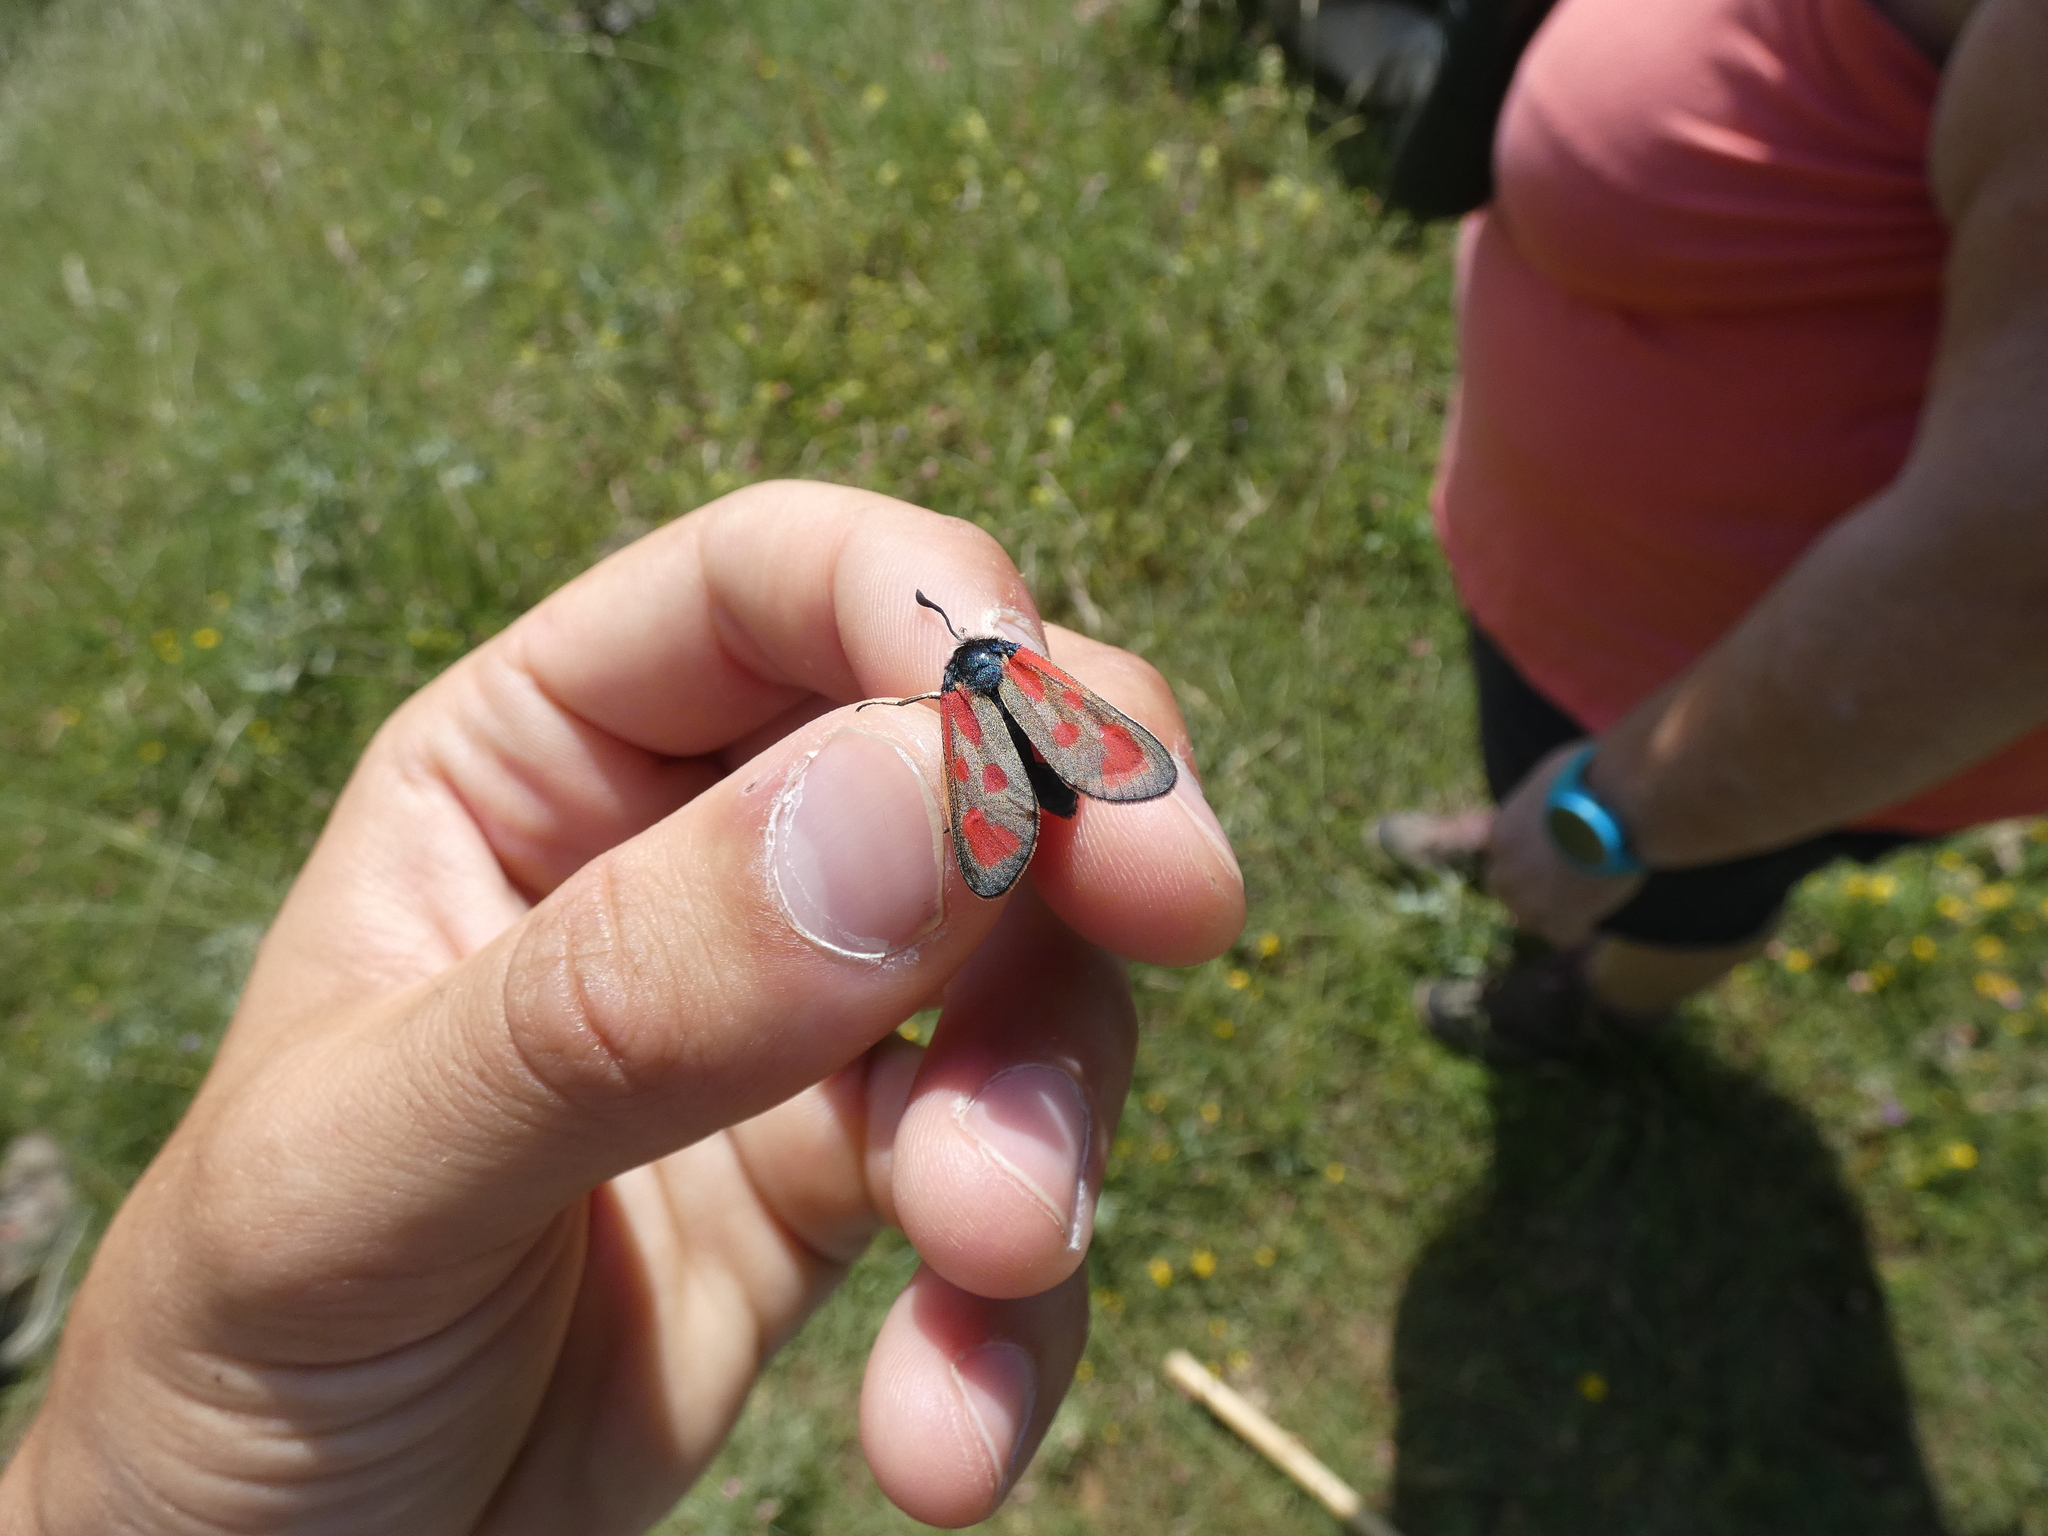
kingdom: Animalia
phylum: Arthropoda
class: Insecta
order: Lepidoptera
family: Zygaenidae
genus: Zygaena
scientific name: Zygaena loti
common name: Slender scotch burnet
